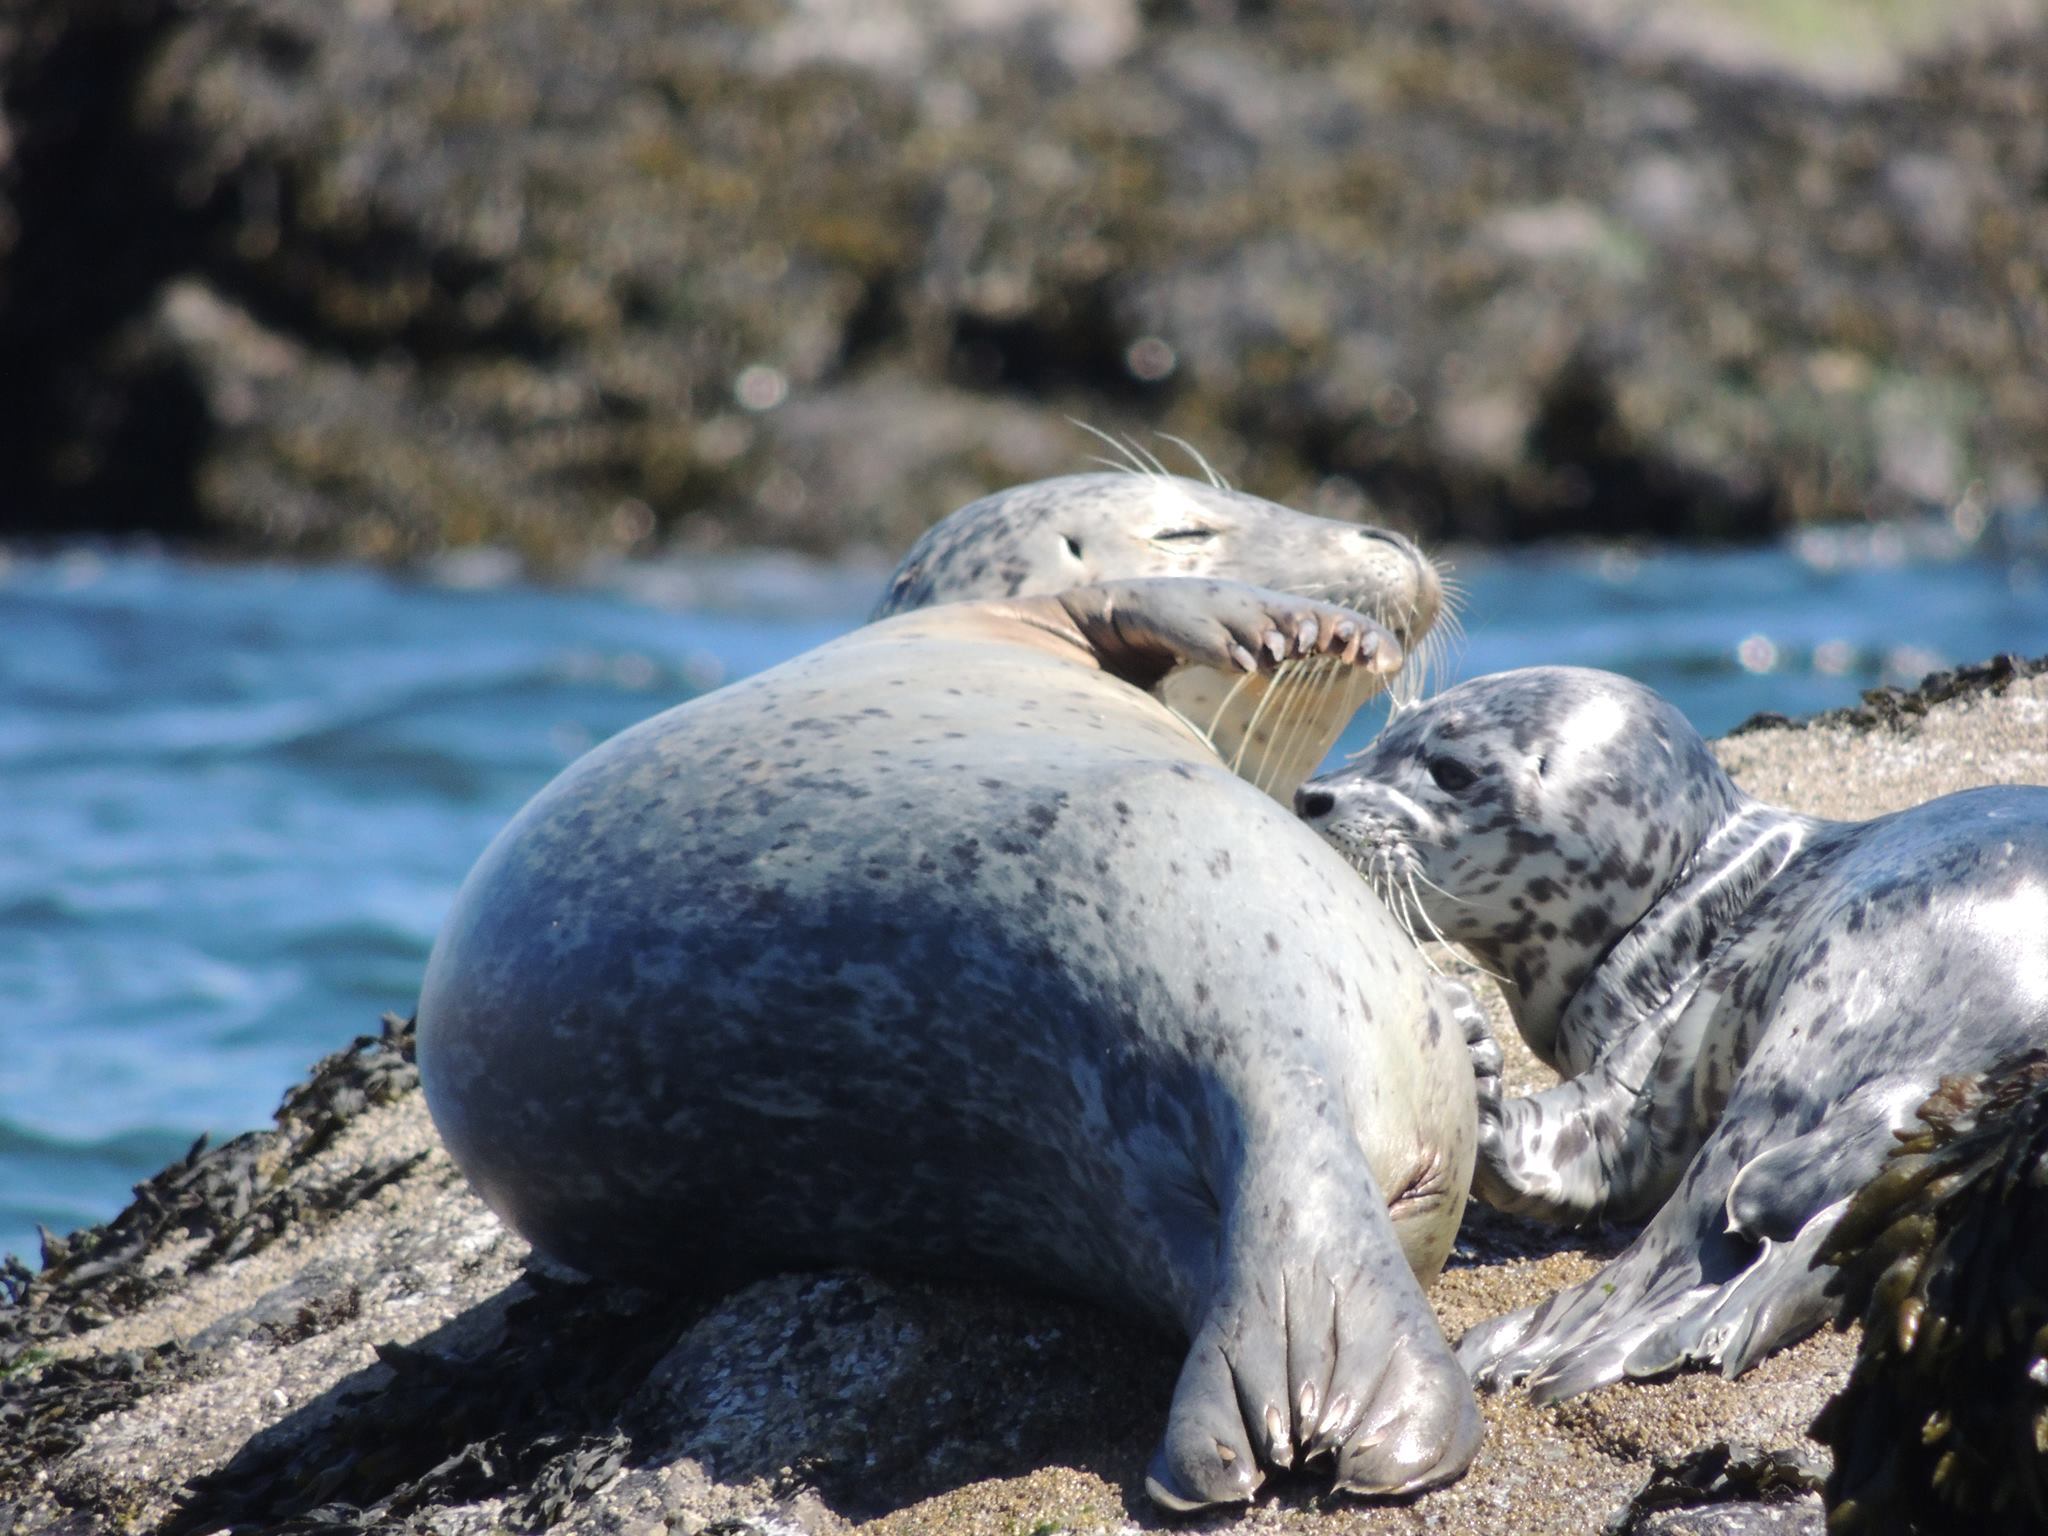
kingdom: Animalia
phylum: Chordata
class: Mammalia
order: Carnivora
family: Phocidae
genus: Phoca
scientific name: Phoca vitulina
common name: Harbor seal
